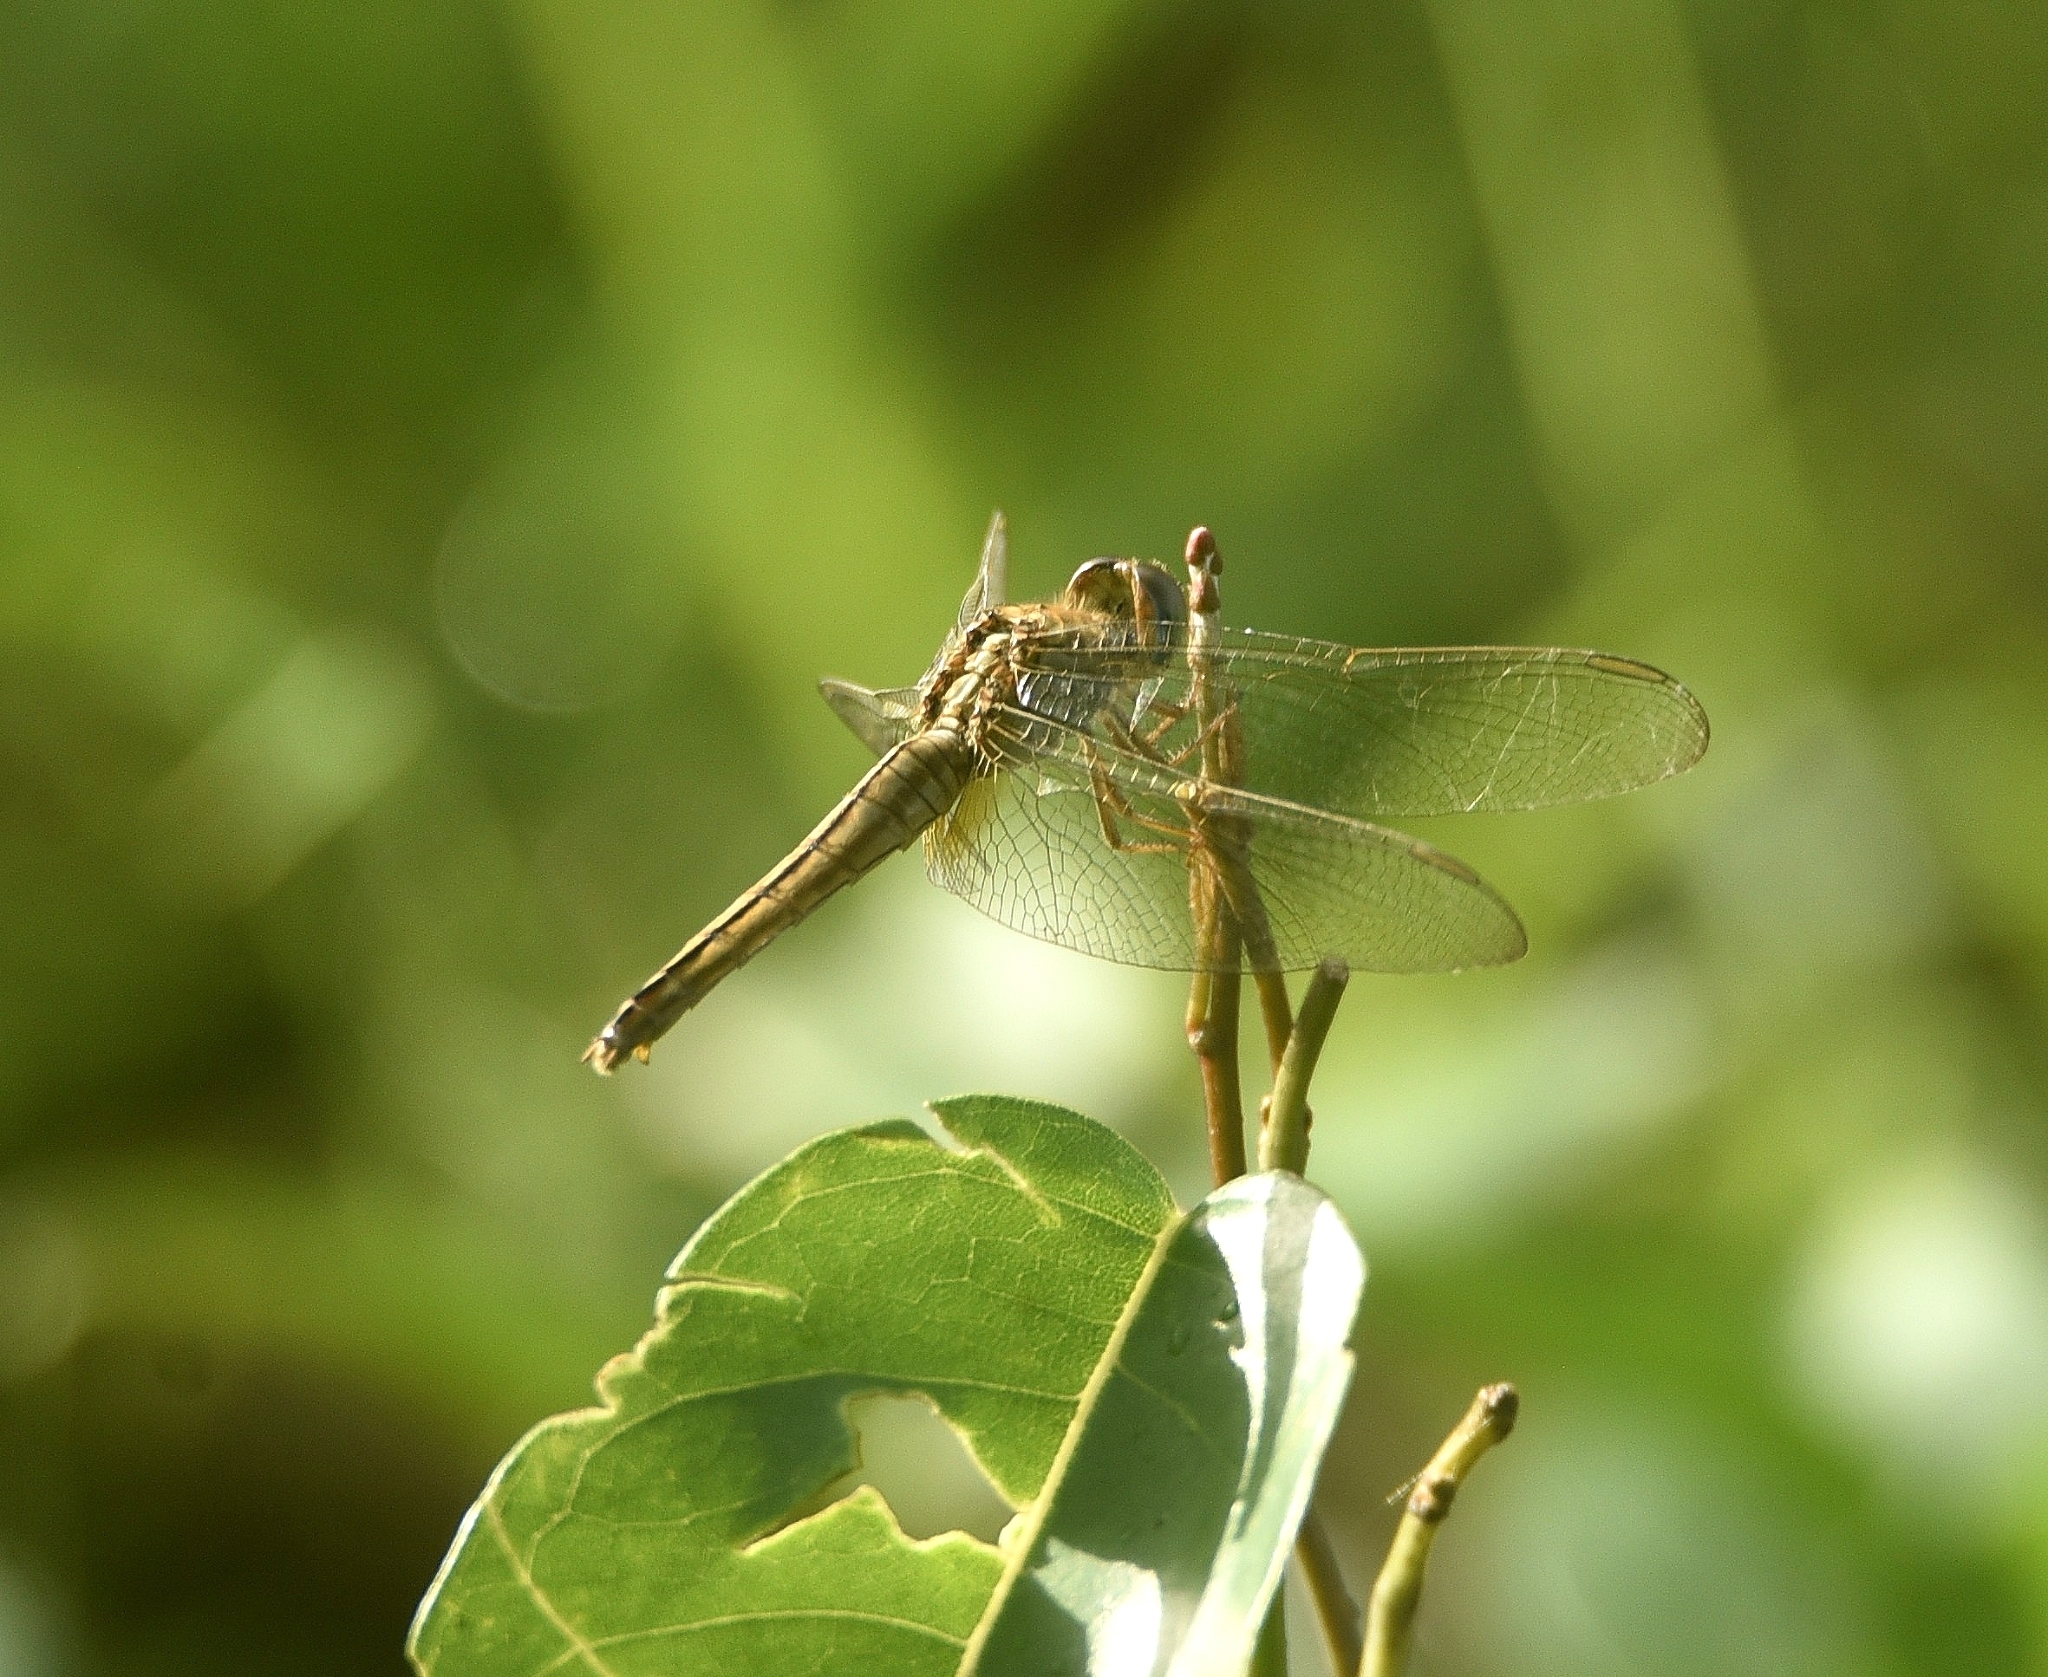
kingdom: Animalia
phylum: Arthropoda
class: Insecta
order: Odonata
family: Libellulidae
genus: Crocothemis
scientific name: Crocothemis servilia
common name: Scarlet skimmer
